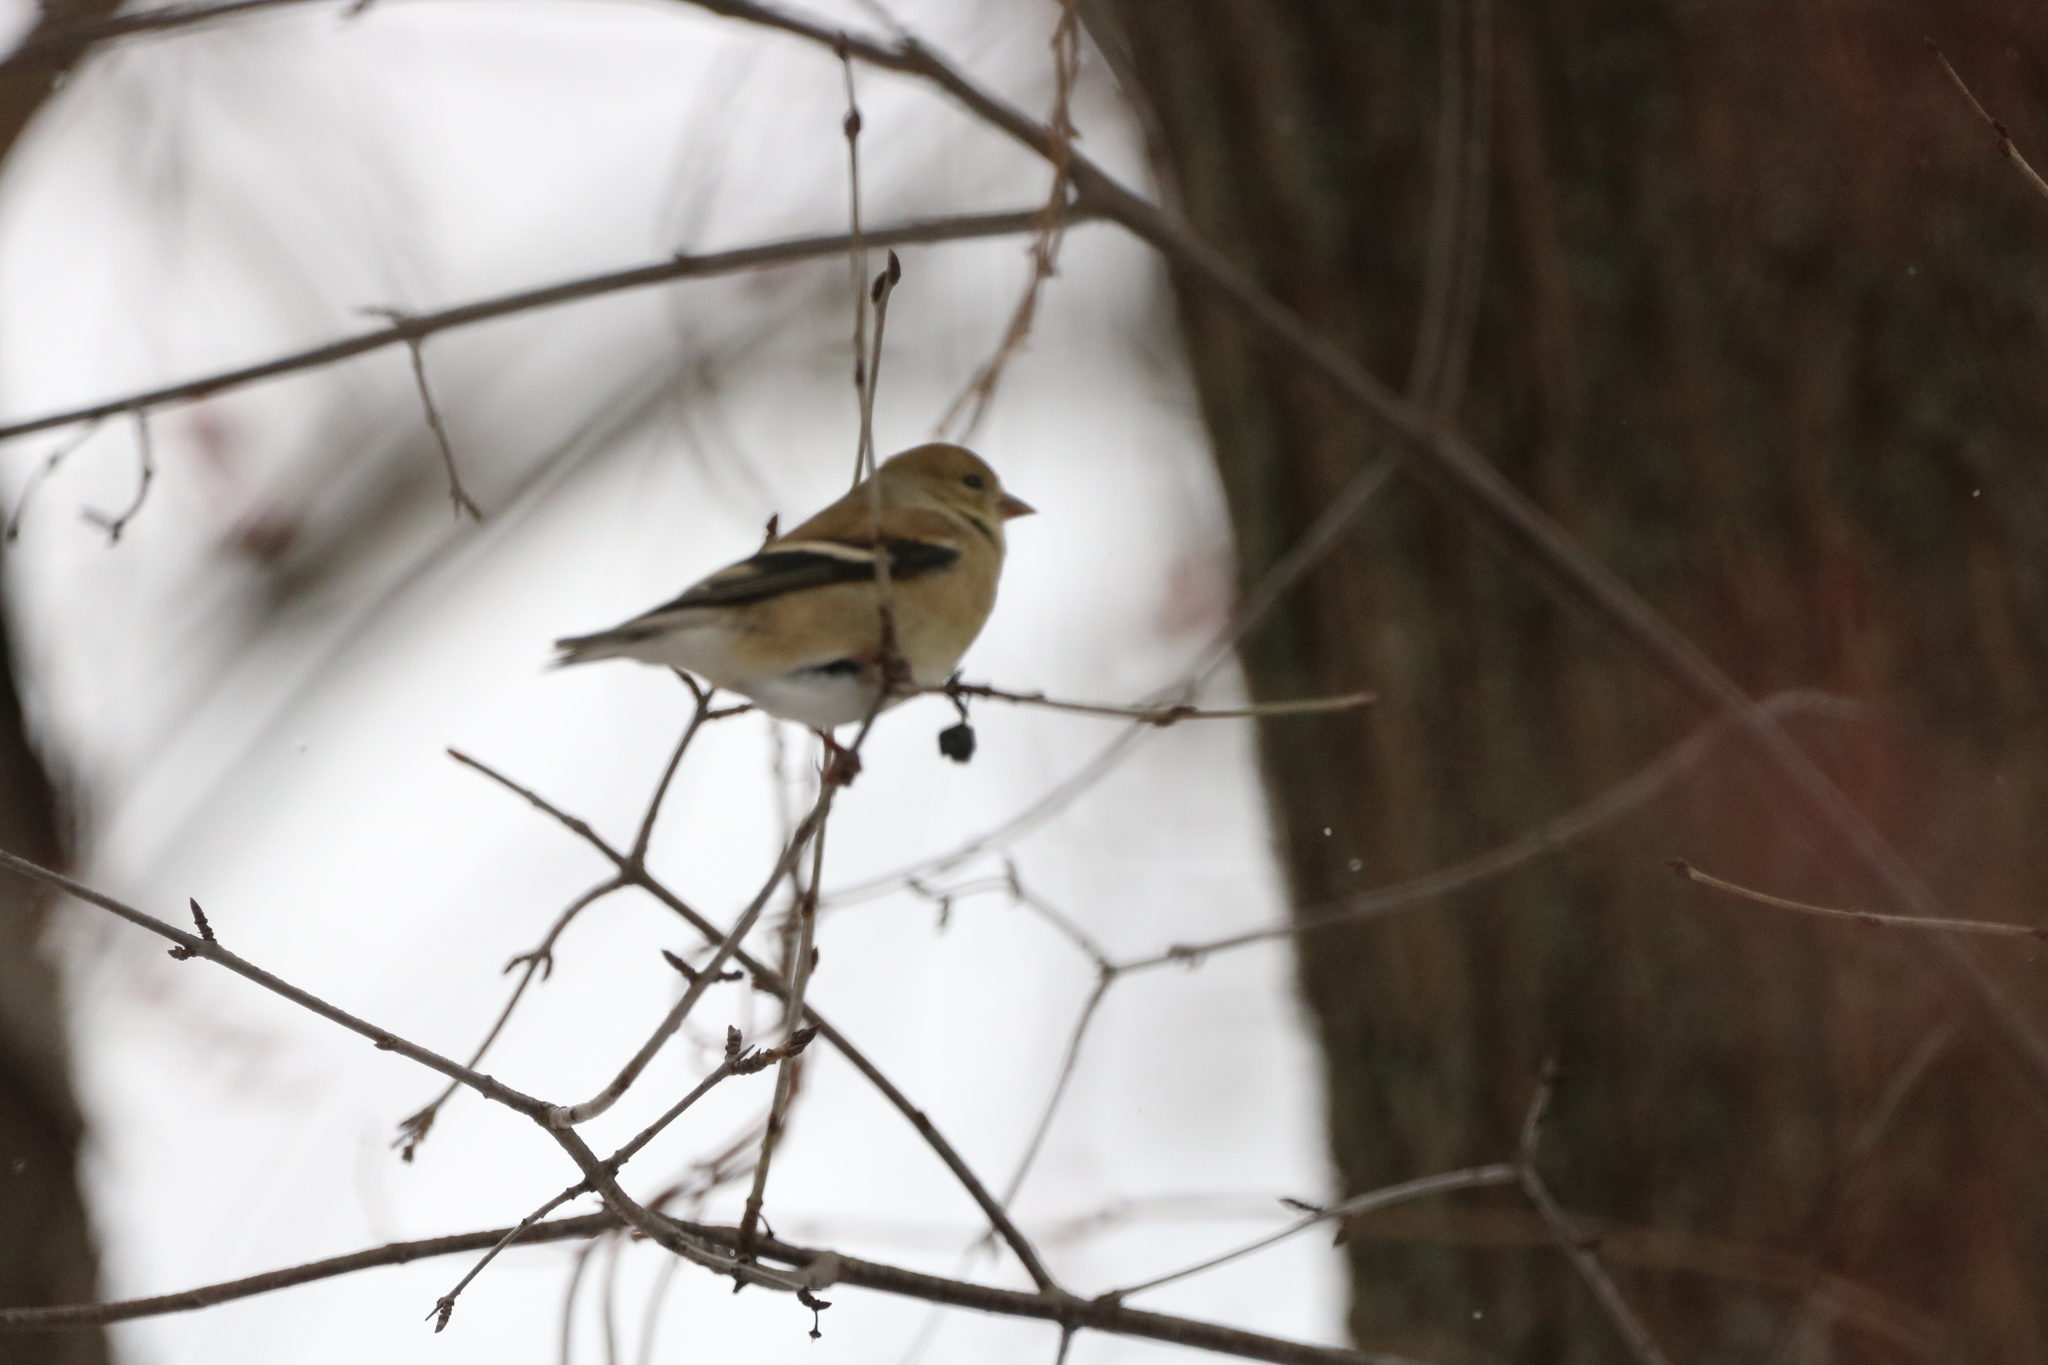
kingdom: Animalia
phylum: Chordata
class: Aves
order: Passeriformes
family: Fringillidae
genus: Spinus
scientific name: Spinus tristis
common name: American goldfinch
